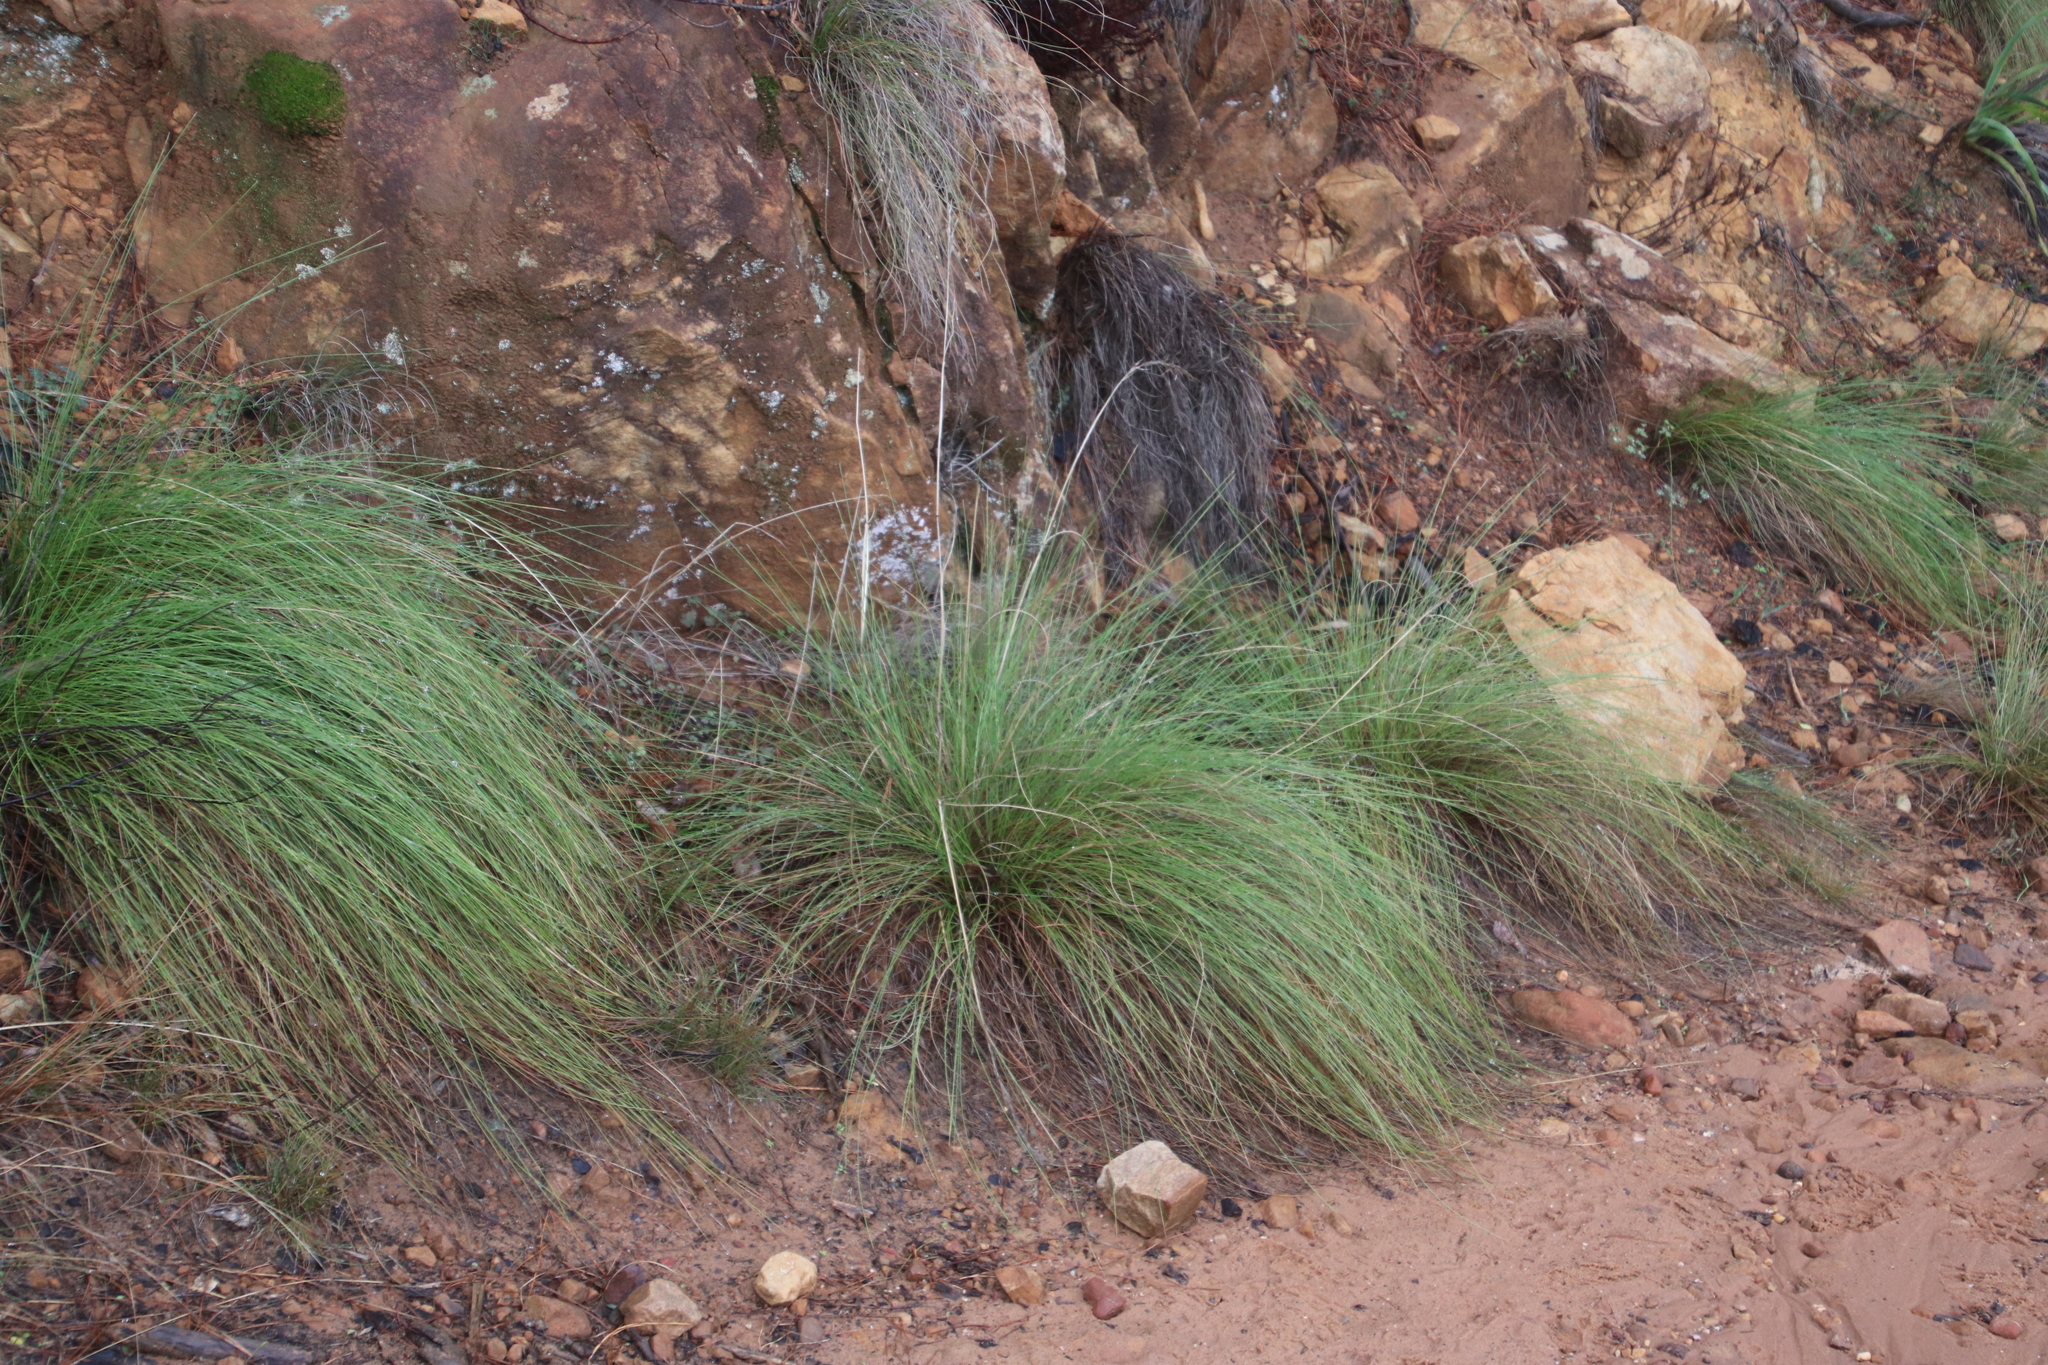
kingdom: Plantae
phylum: Tracheophyta
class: Liliopsida
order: Poales
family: Poaceae
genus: Tenaxia
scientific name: Tenaxia stricta
